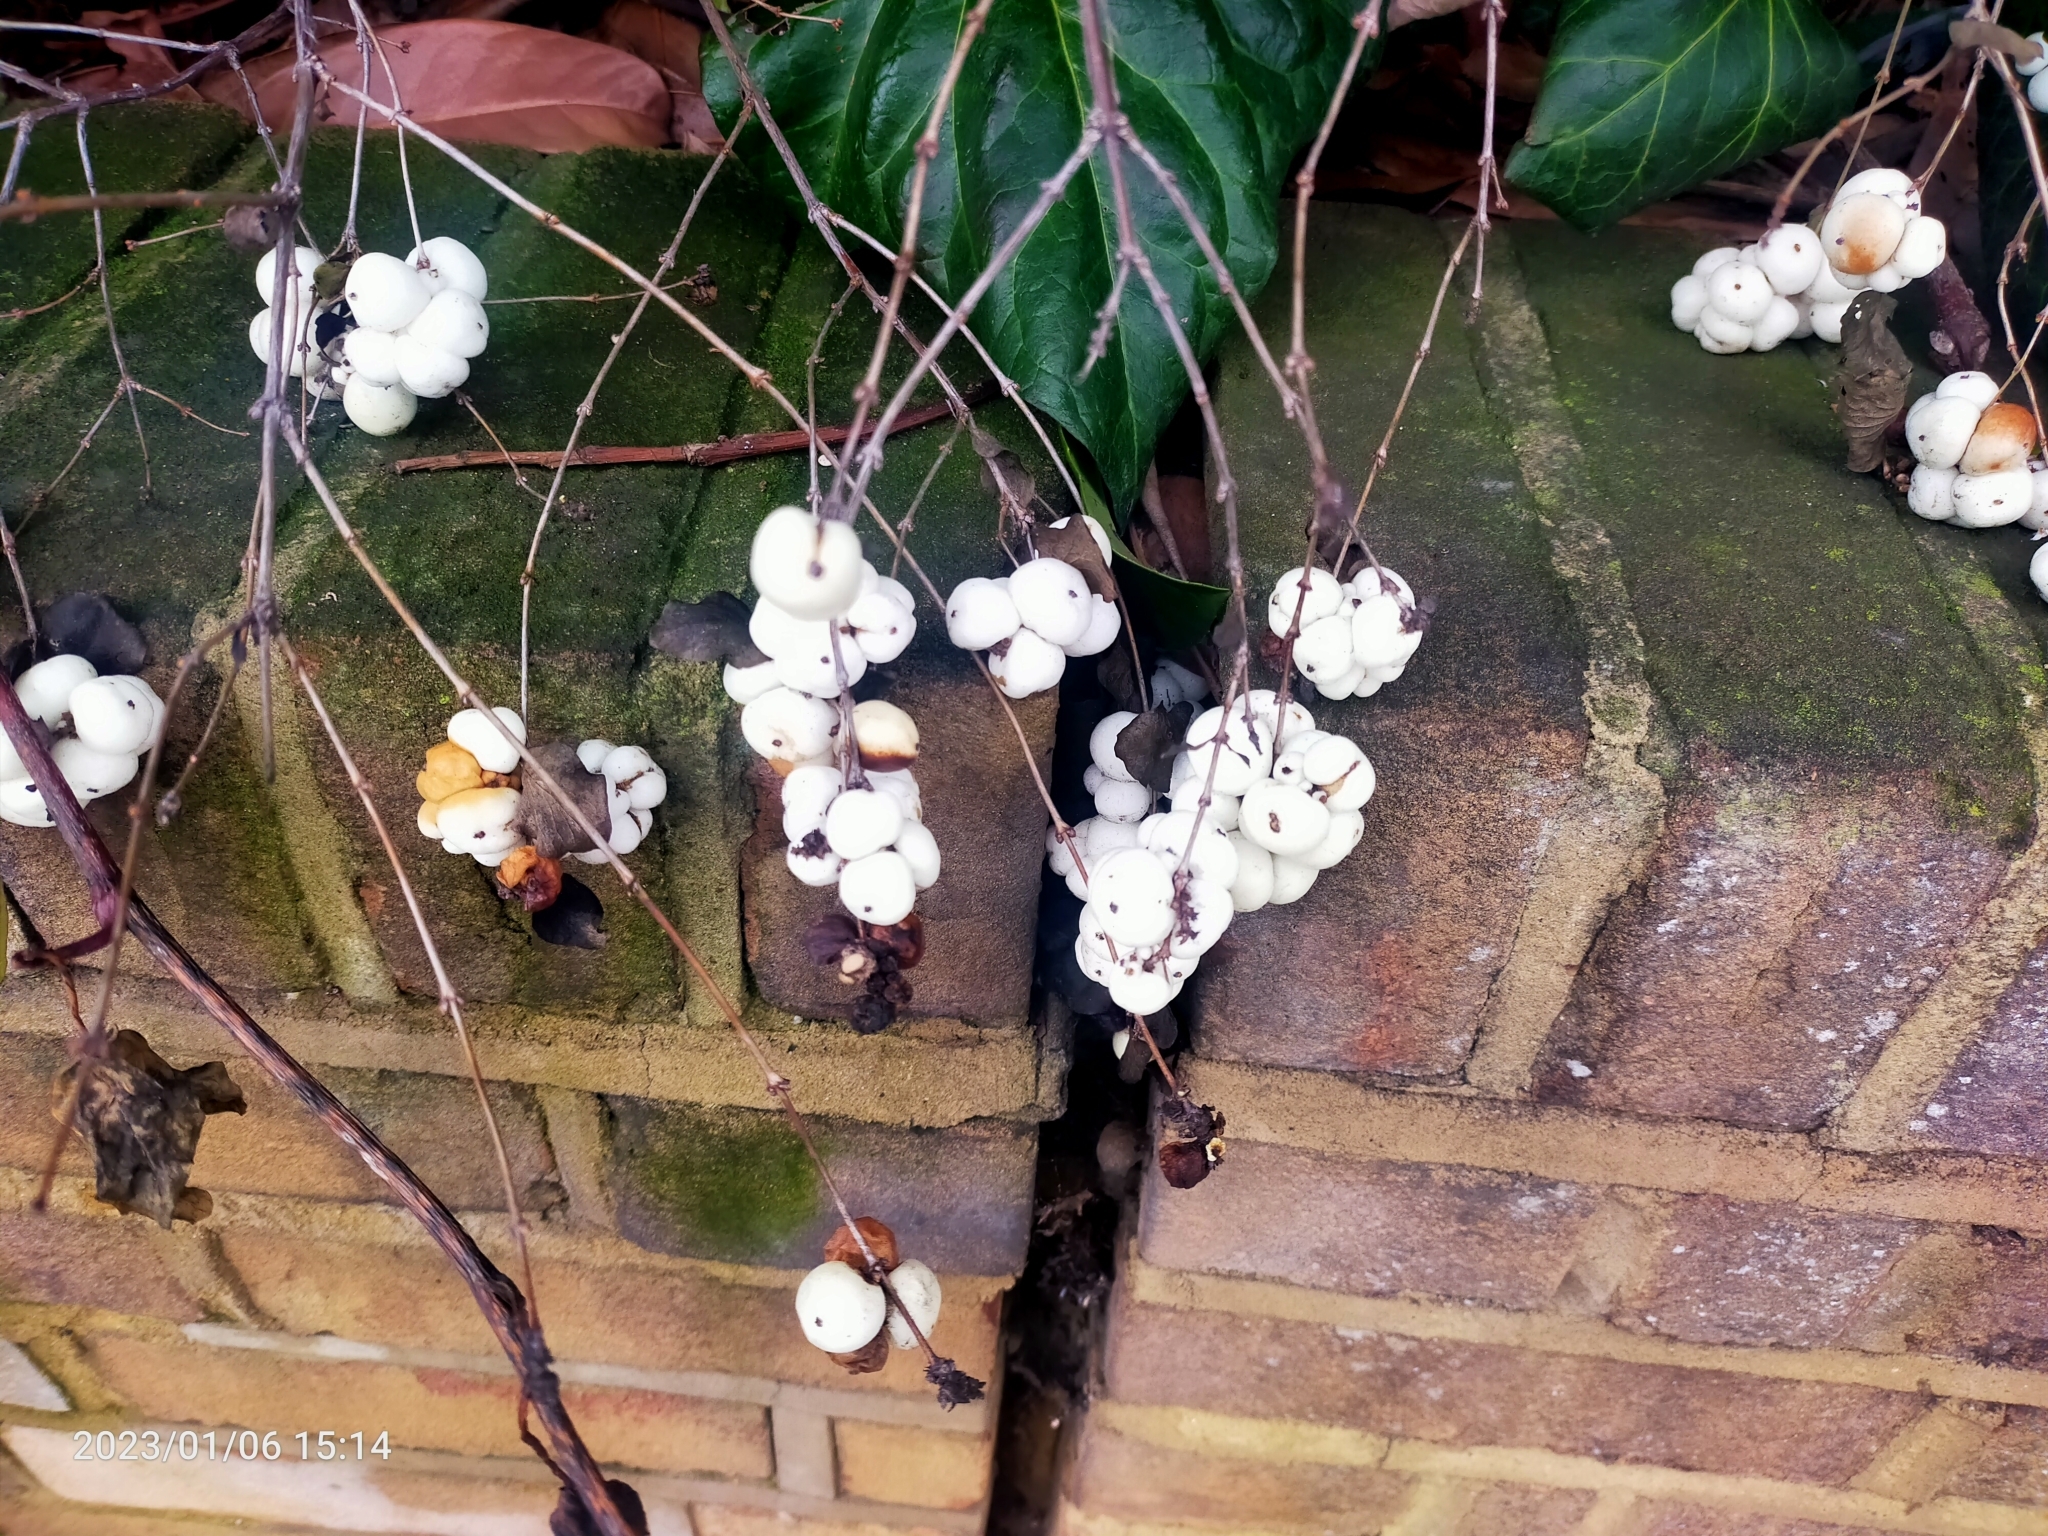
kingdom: Plantae
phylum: Tracheophyta
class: Magnoliopsida
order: Dipsacales
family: Caprifoliaceae
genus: Symphoricarpos
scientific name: Symphoricarpos albus
